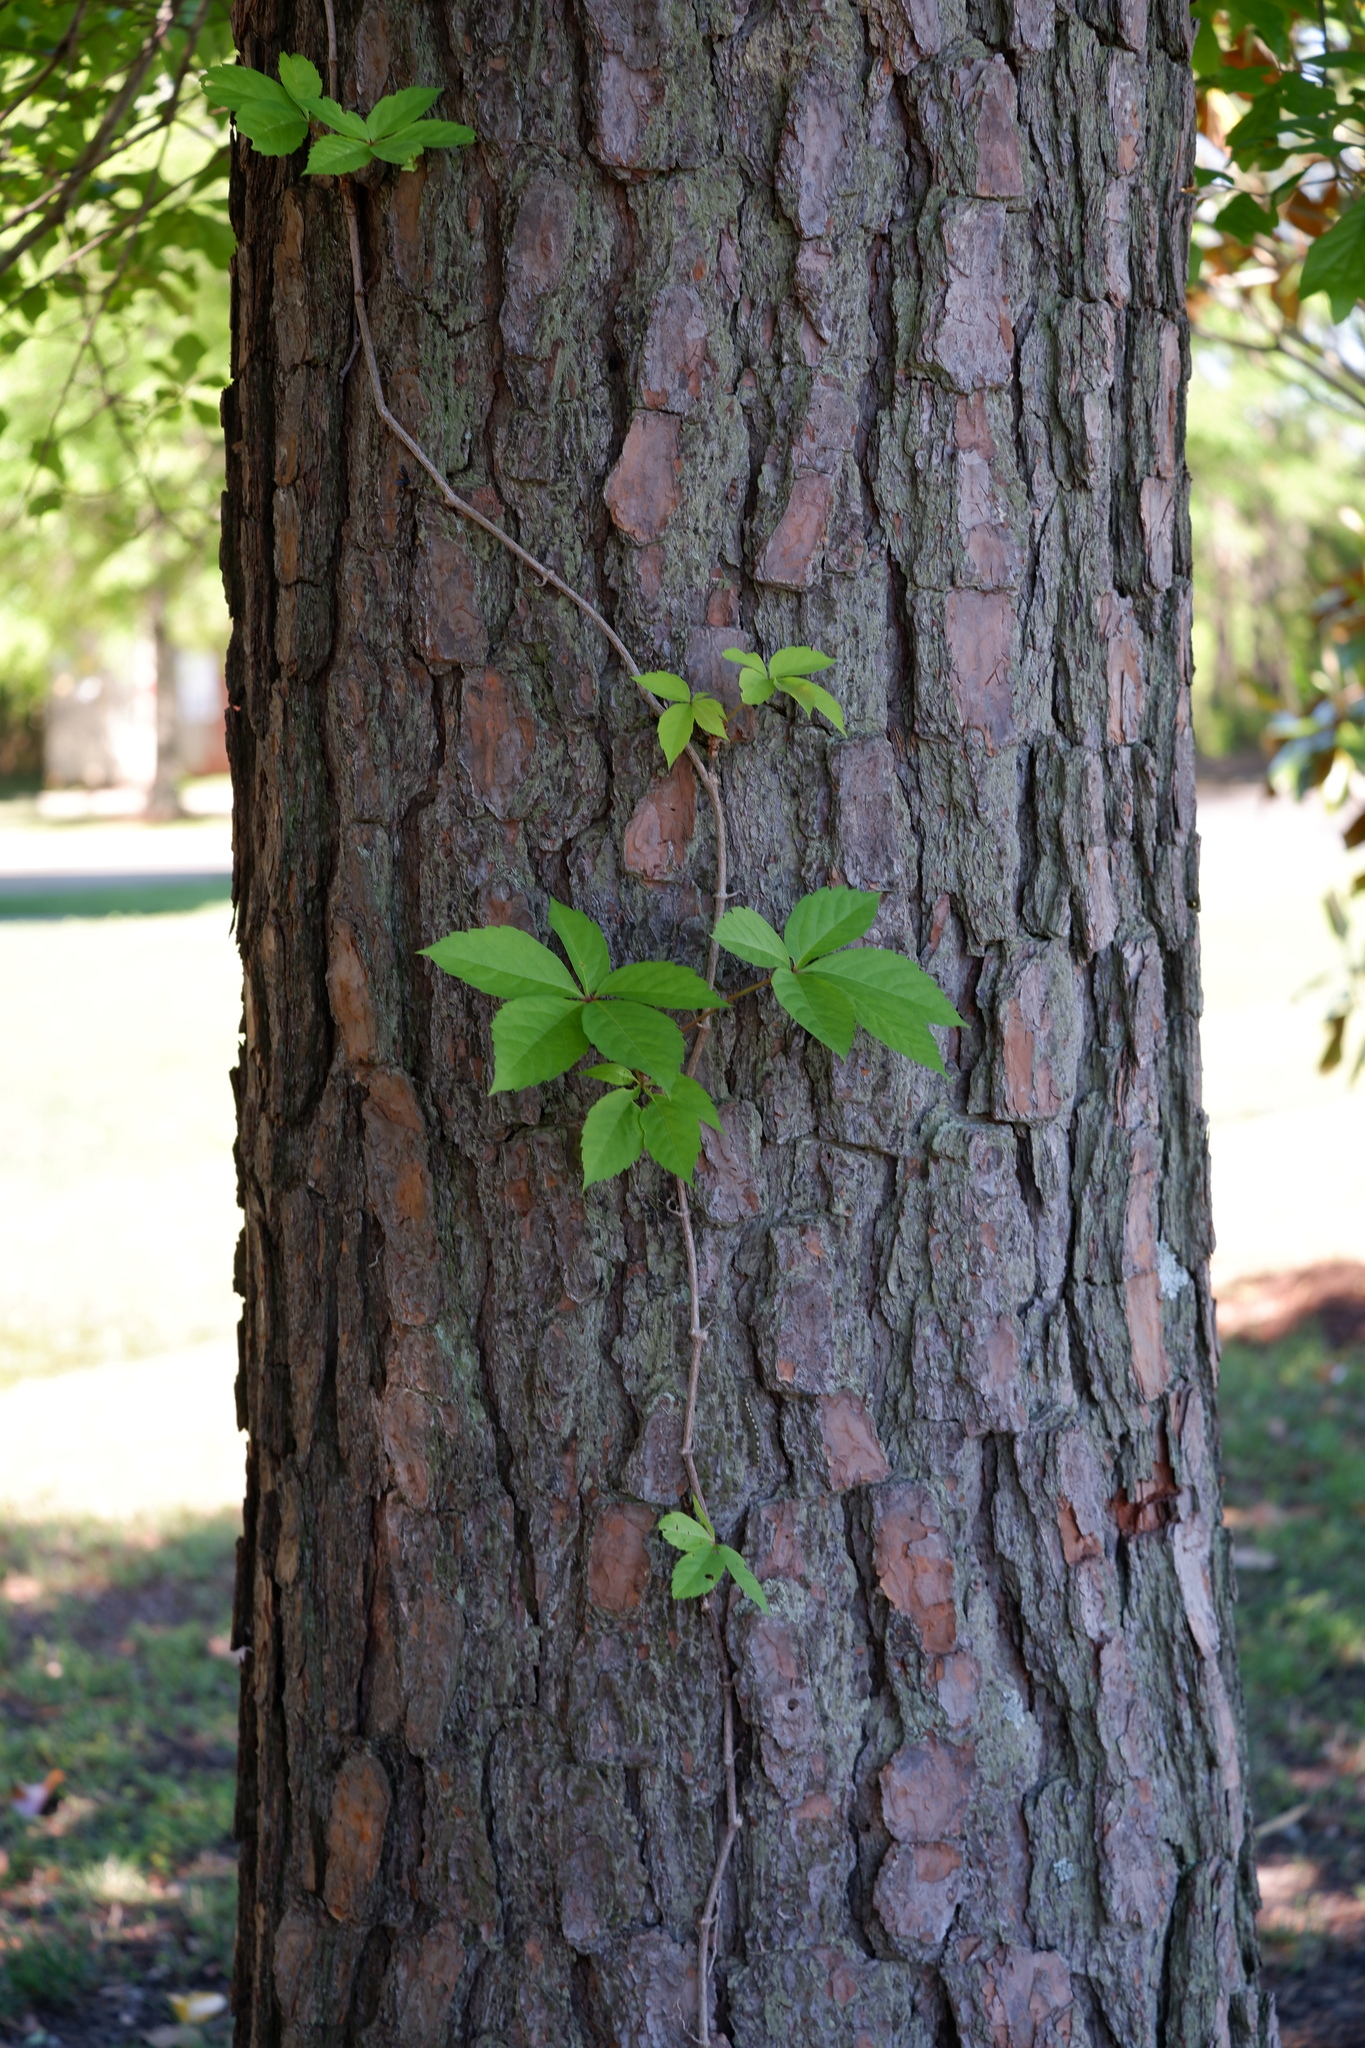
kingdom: Plantae
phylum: Tracheophyta
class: Magnoliopsida
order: Vitales
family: Vitaceae
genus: Parthenocissus
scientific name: Parthenocissus quinquefolia
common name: Virginia-creeper
